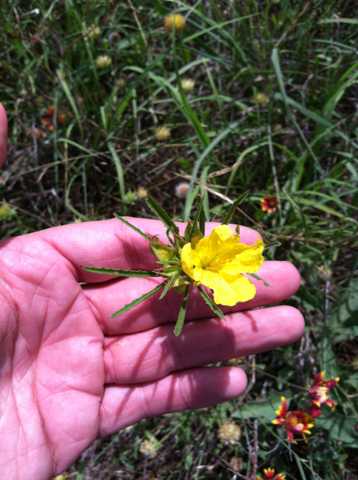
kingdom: Plantae
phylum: Tracheophyta
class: Magnoliopsida
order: Myrtales
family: Onagraceae
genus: Oenothera
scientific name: Oenothera
